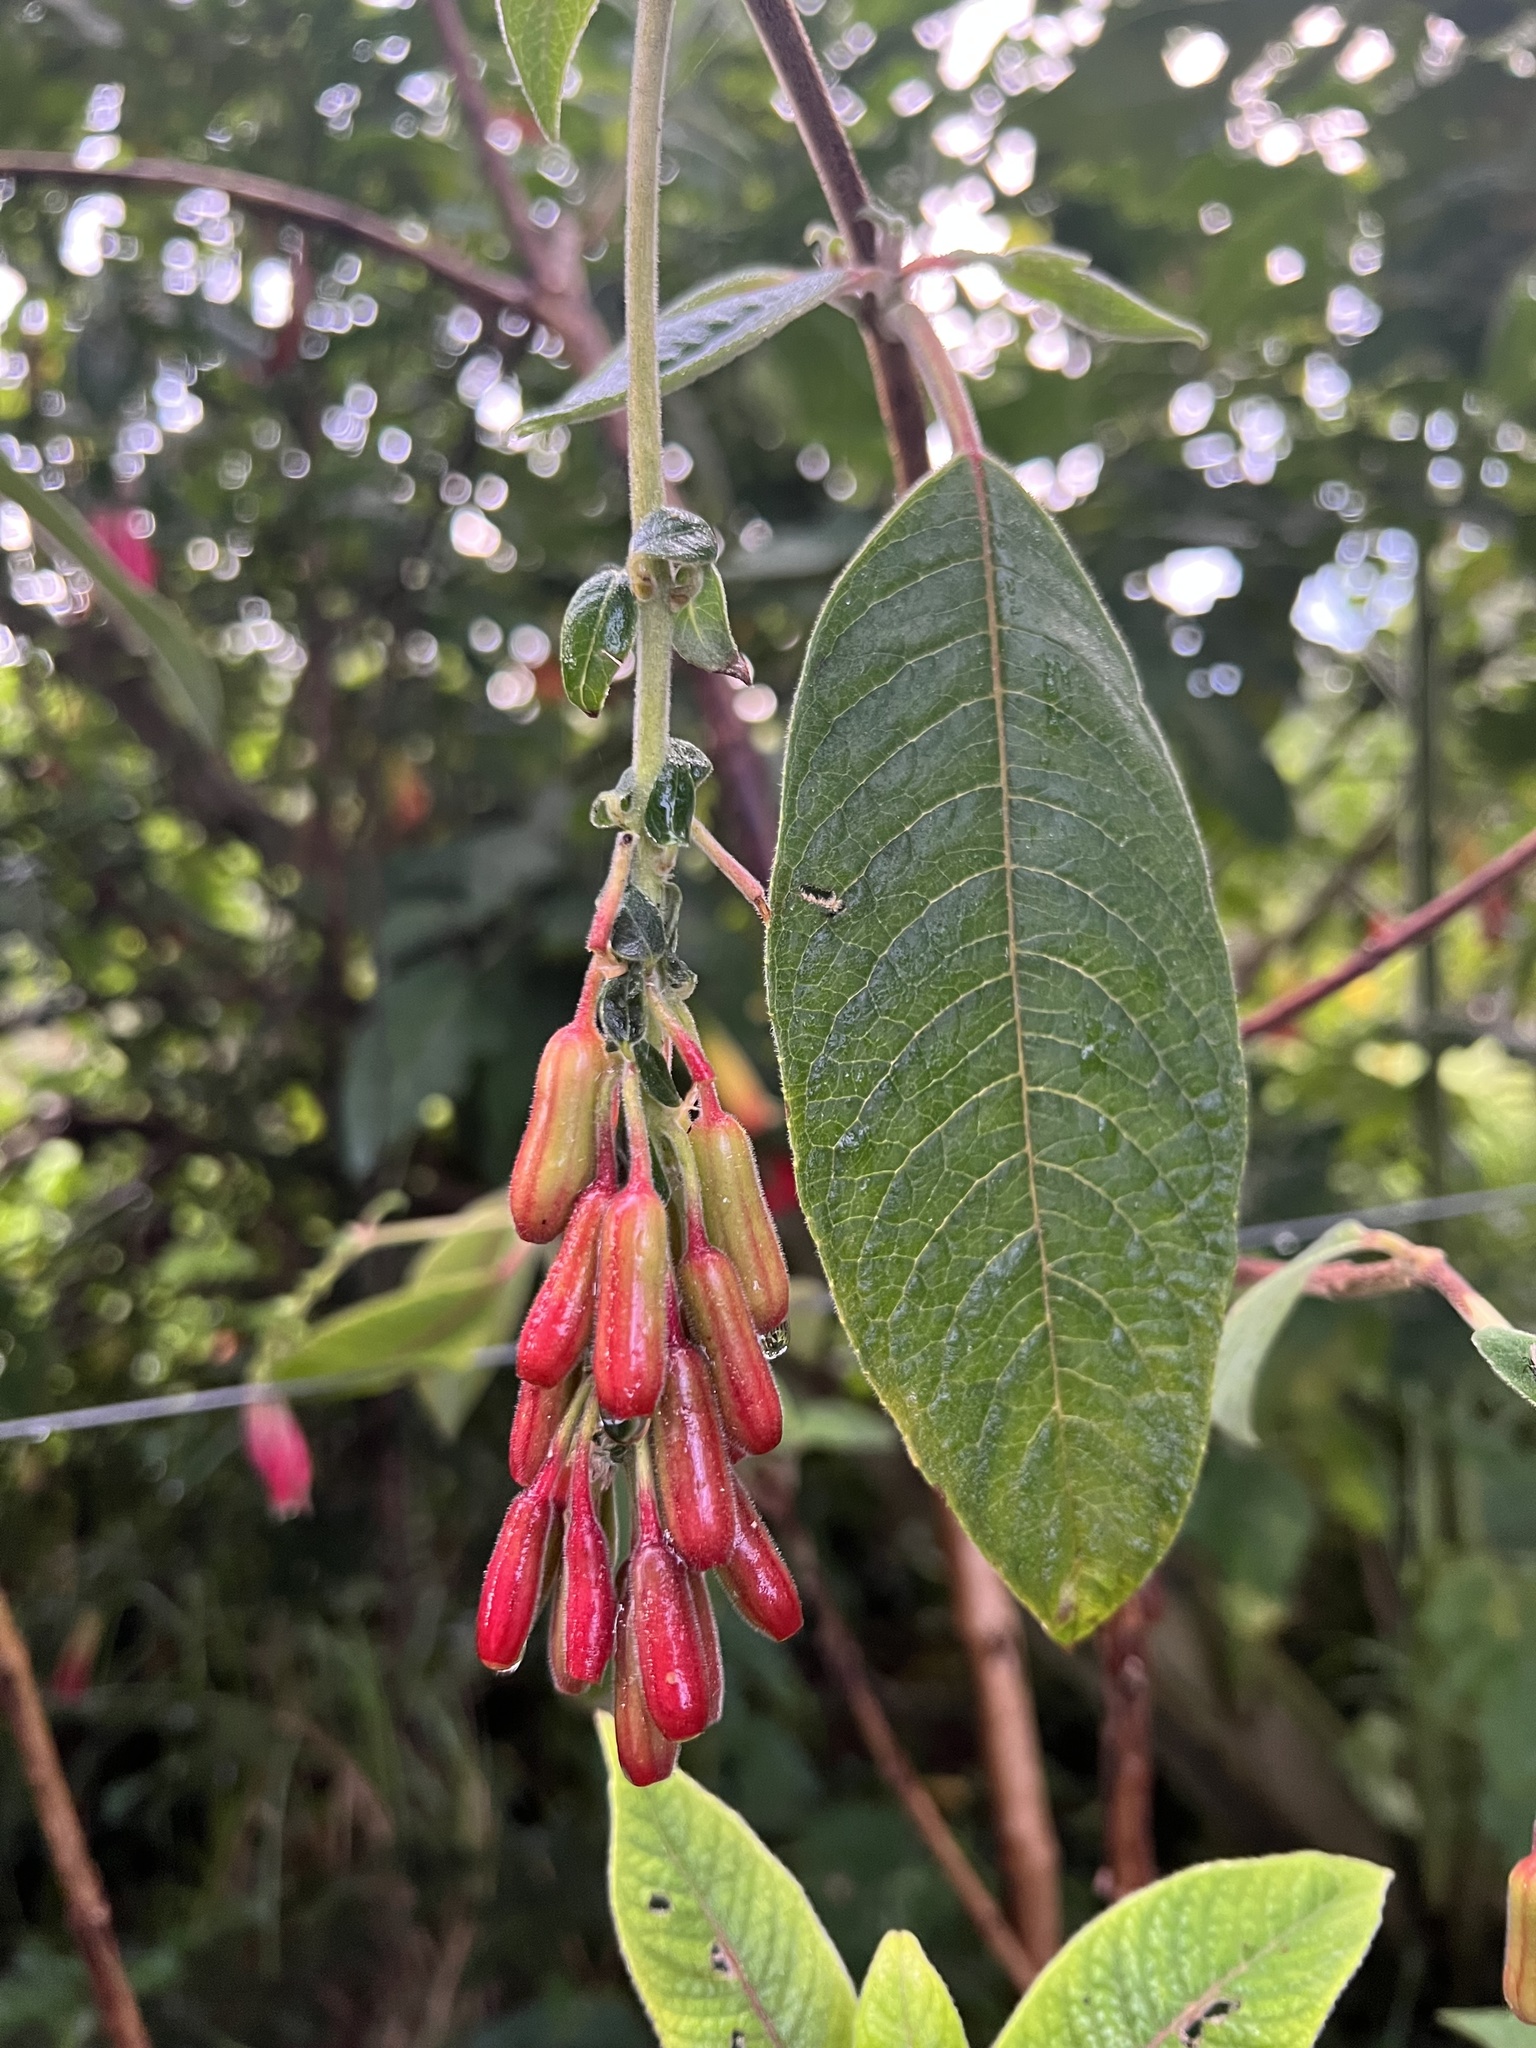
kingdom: Plantae
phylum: Tracheophyta
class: Magnoliopsida
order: Myrtales
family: Onagraceae
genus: Fuchsia
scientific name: Fuchsia boliviana
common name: Bolivian fuchsia
